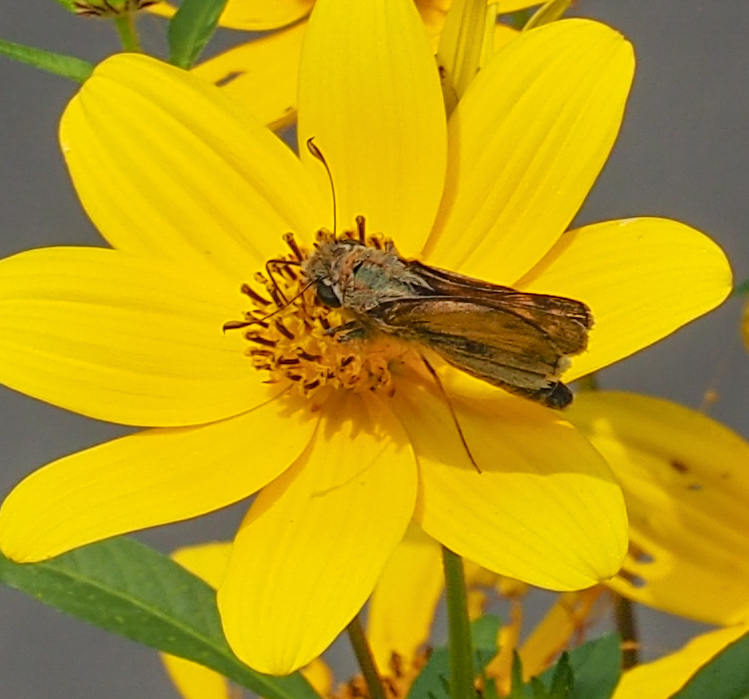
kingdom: Animalia
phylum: Arthropoda
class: Insecta
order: Lepidoptera
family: Hesperiidae
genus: Atalopedes
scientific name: Atalopedes
